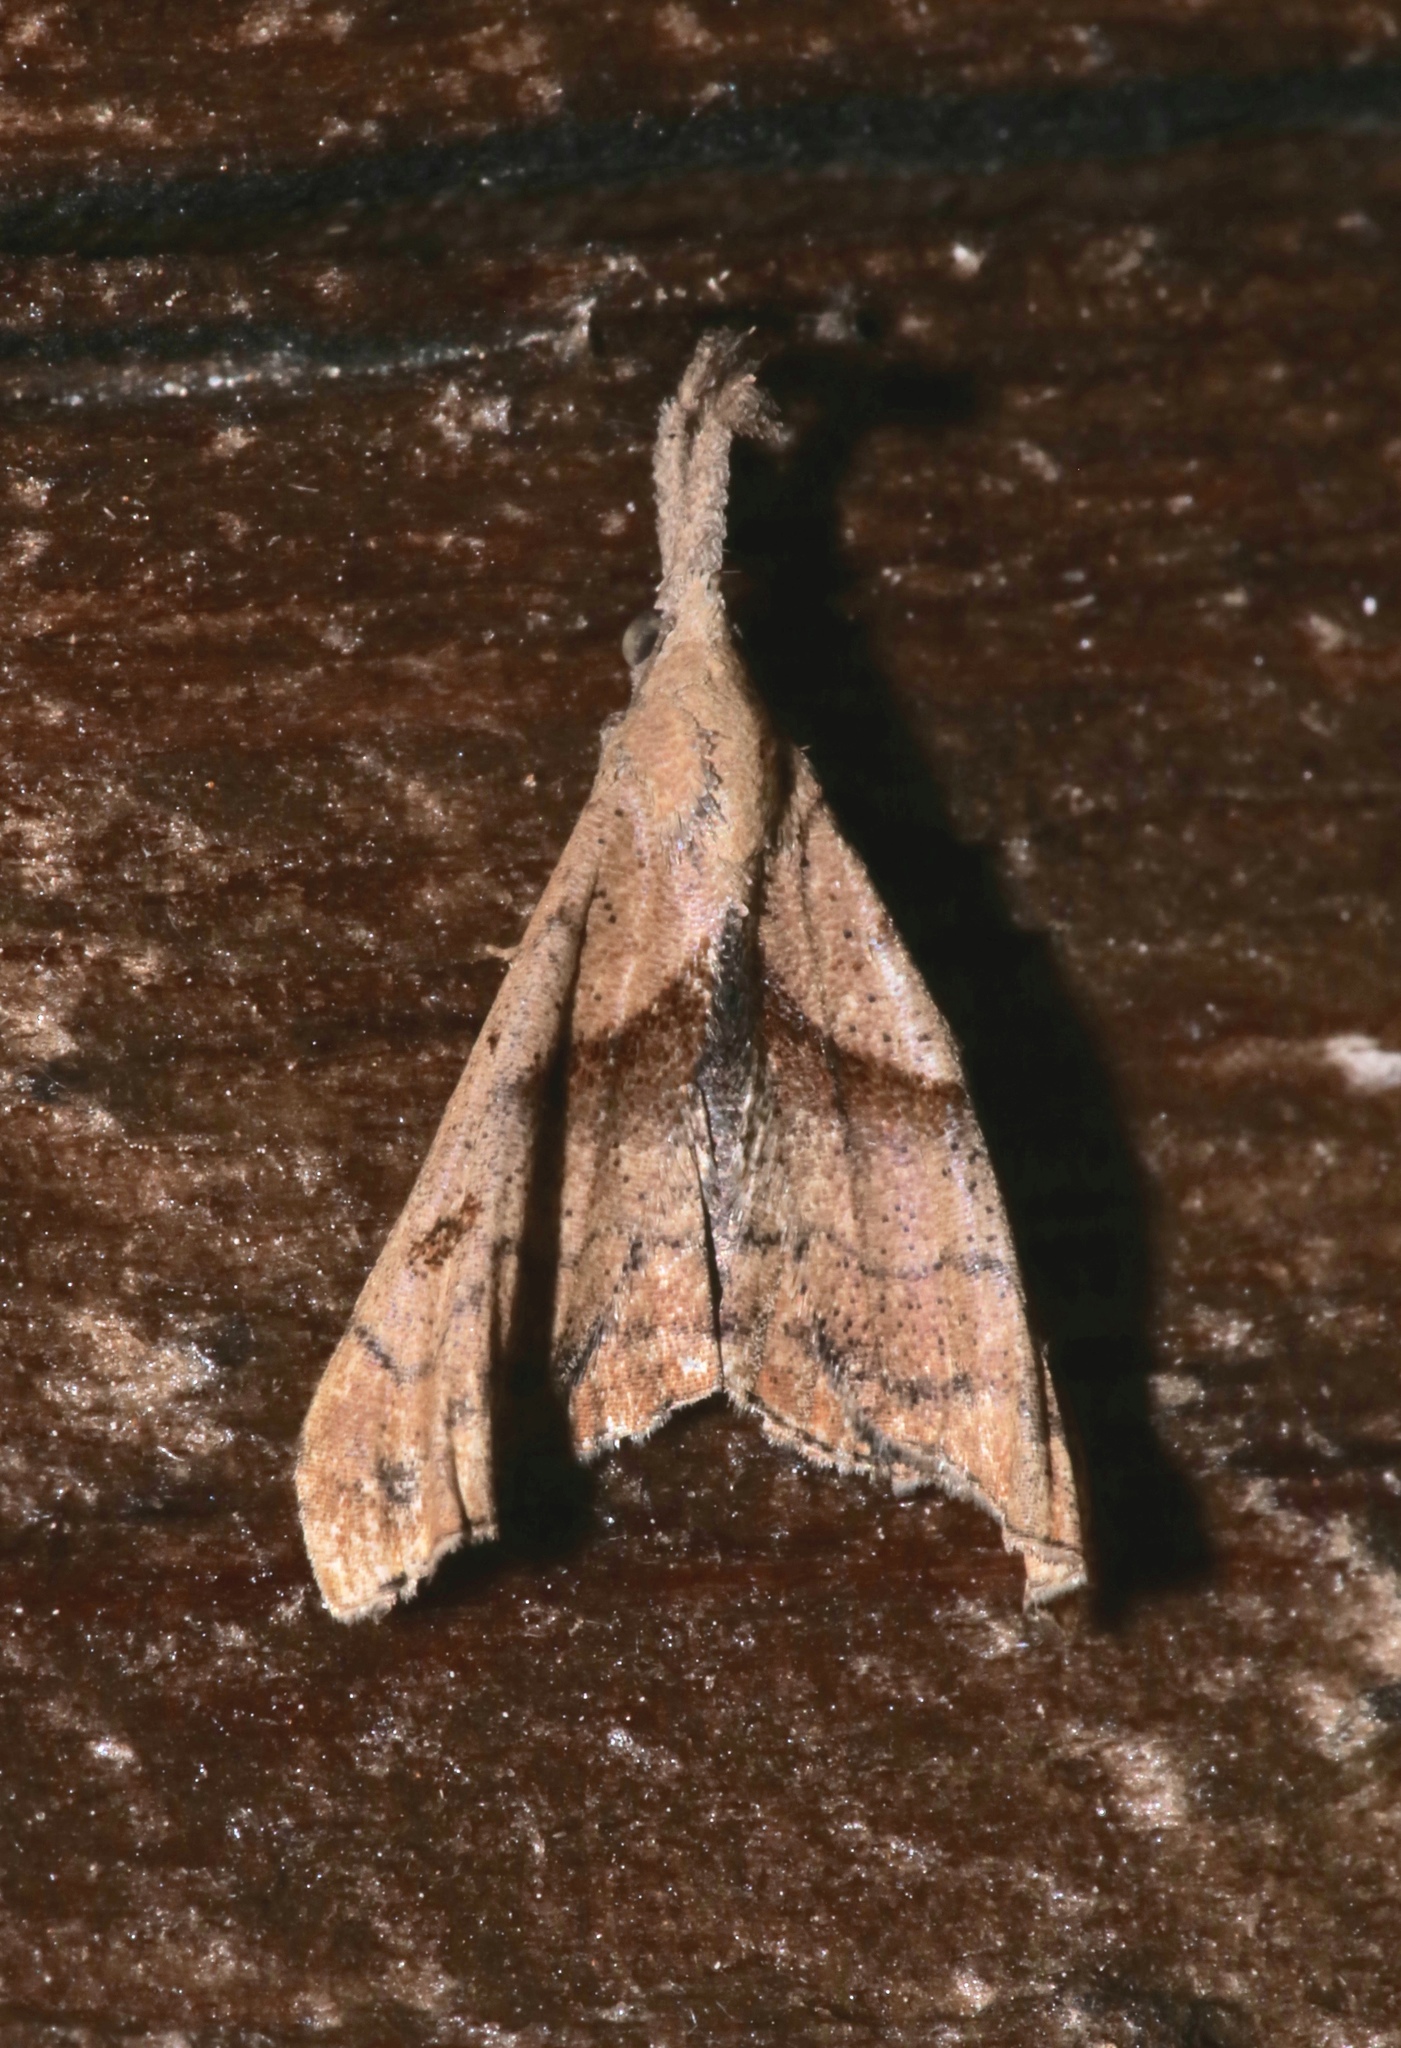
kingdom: Animalia
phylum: Arthropoda
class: Insecta
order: Lepidoptera
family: Erebidae
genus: Palthis
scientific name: Palthis angulalis
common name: Dark-spotted palthis moth
